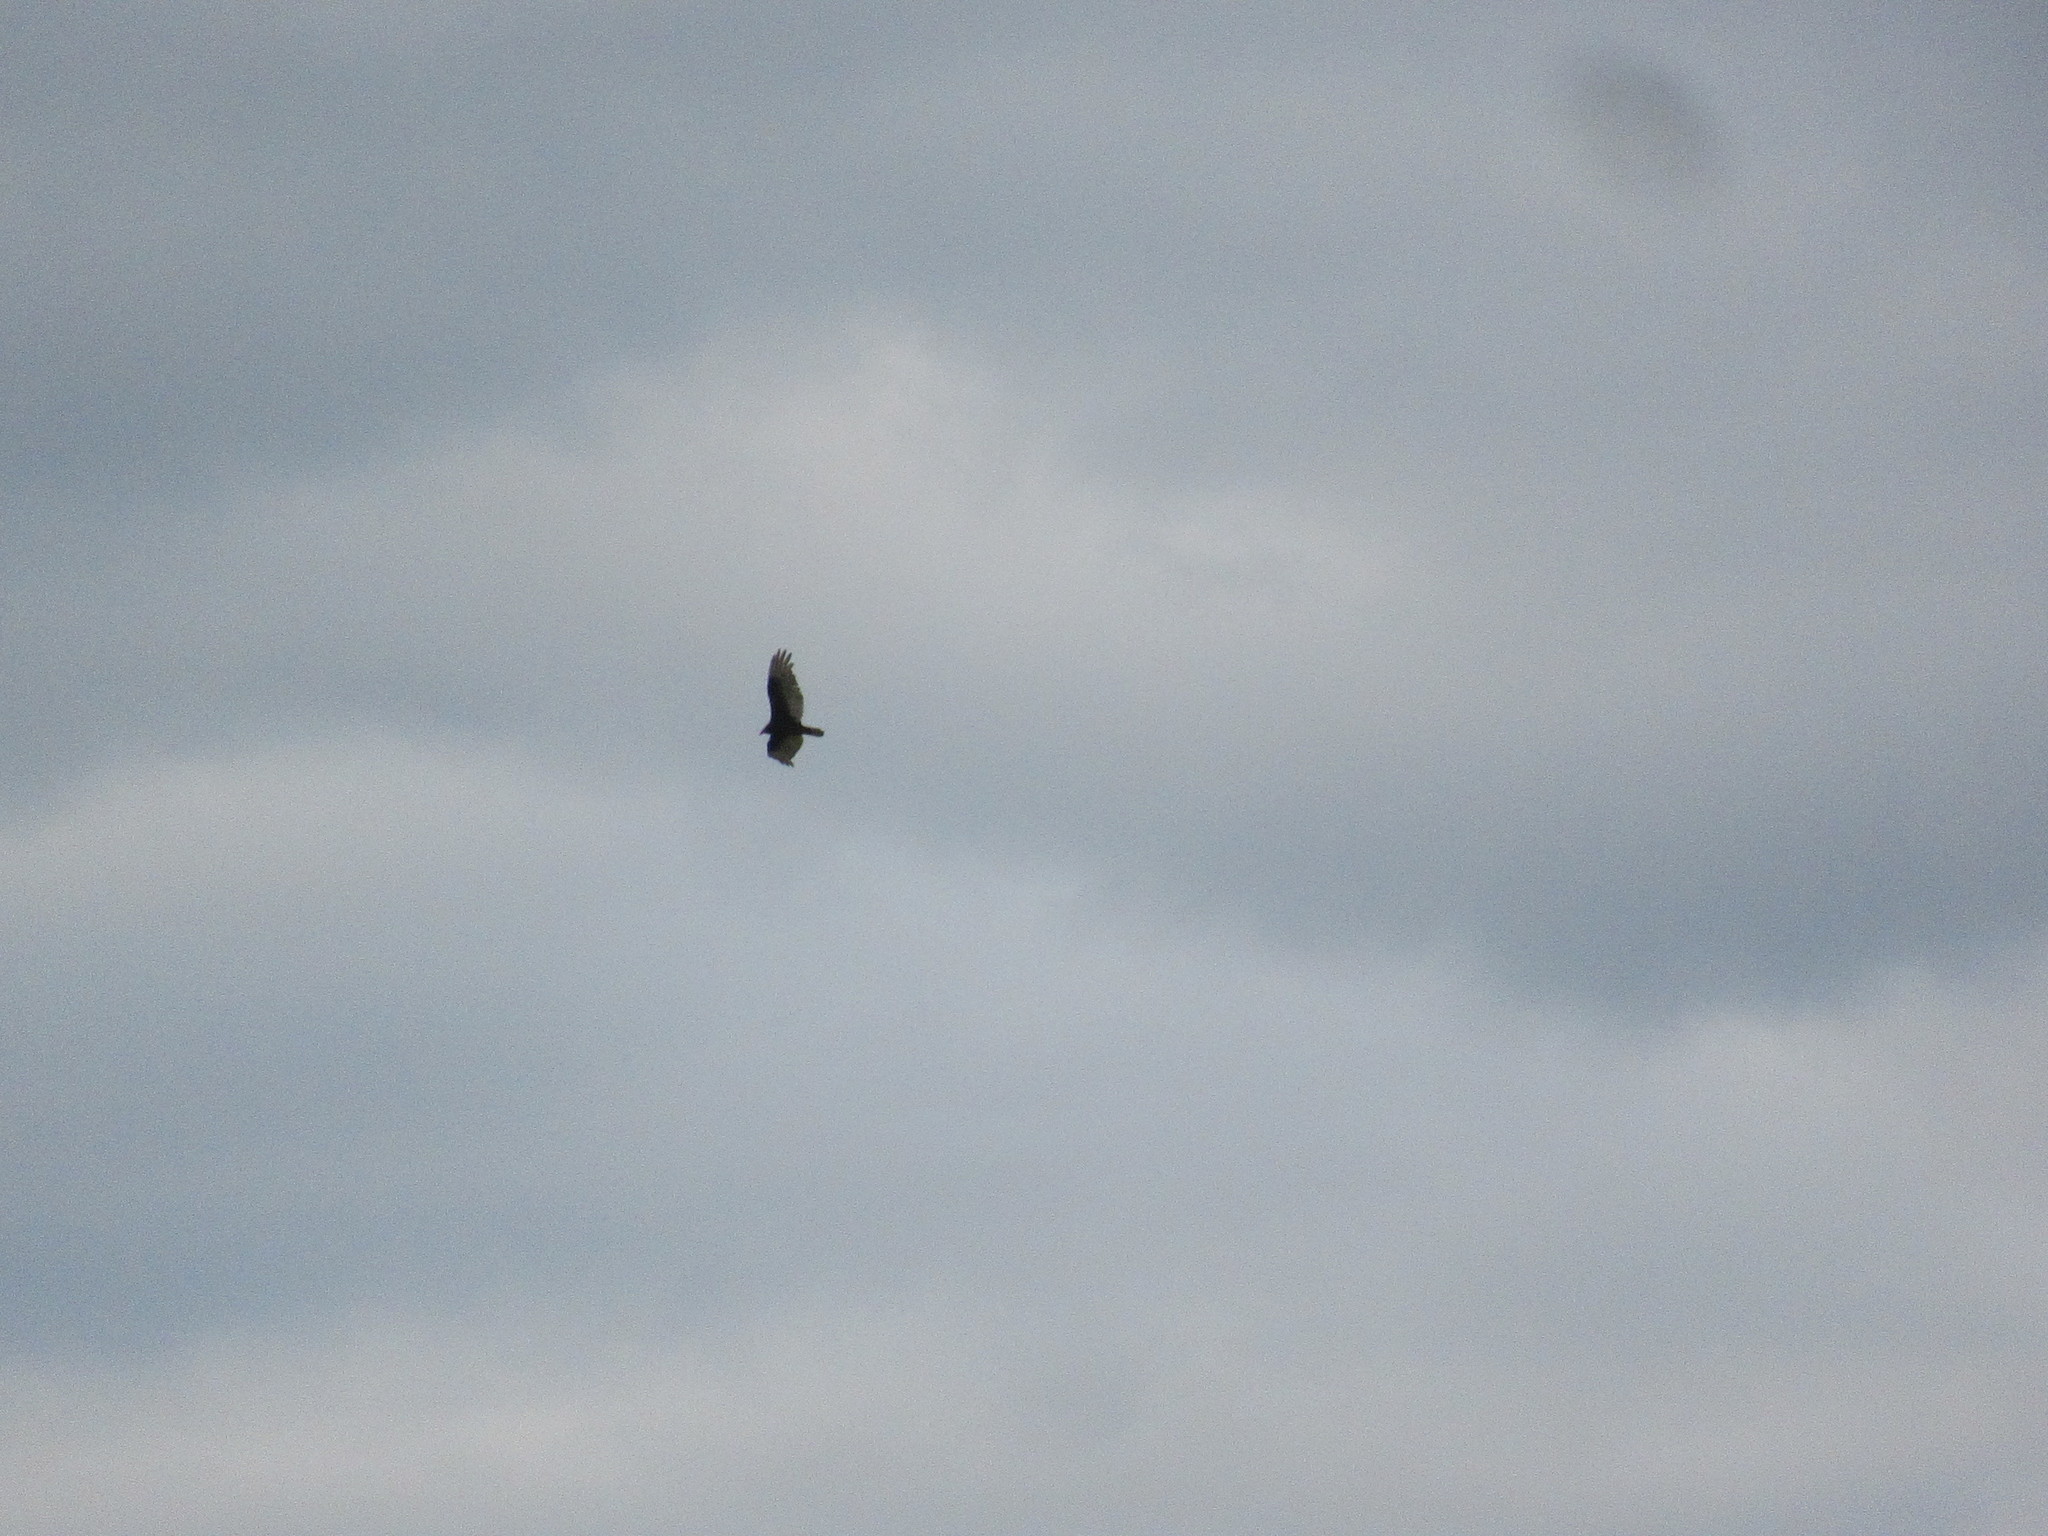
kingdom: Animalia
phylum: Chordata
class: Aves
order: Accipitriformes
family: Cathartidae
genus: Cathartes
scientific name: Cathartes aura
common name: Turkey vulture
